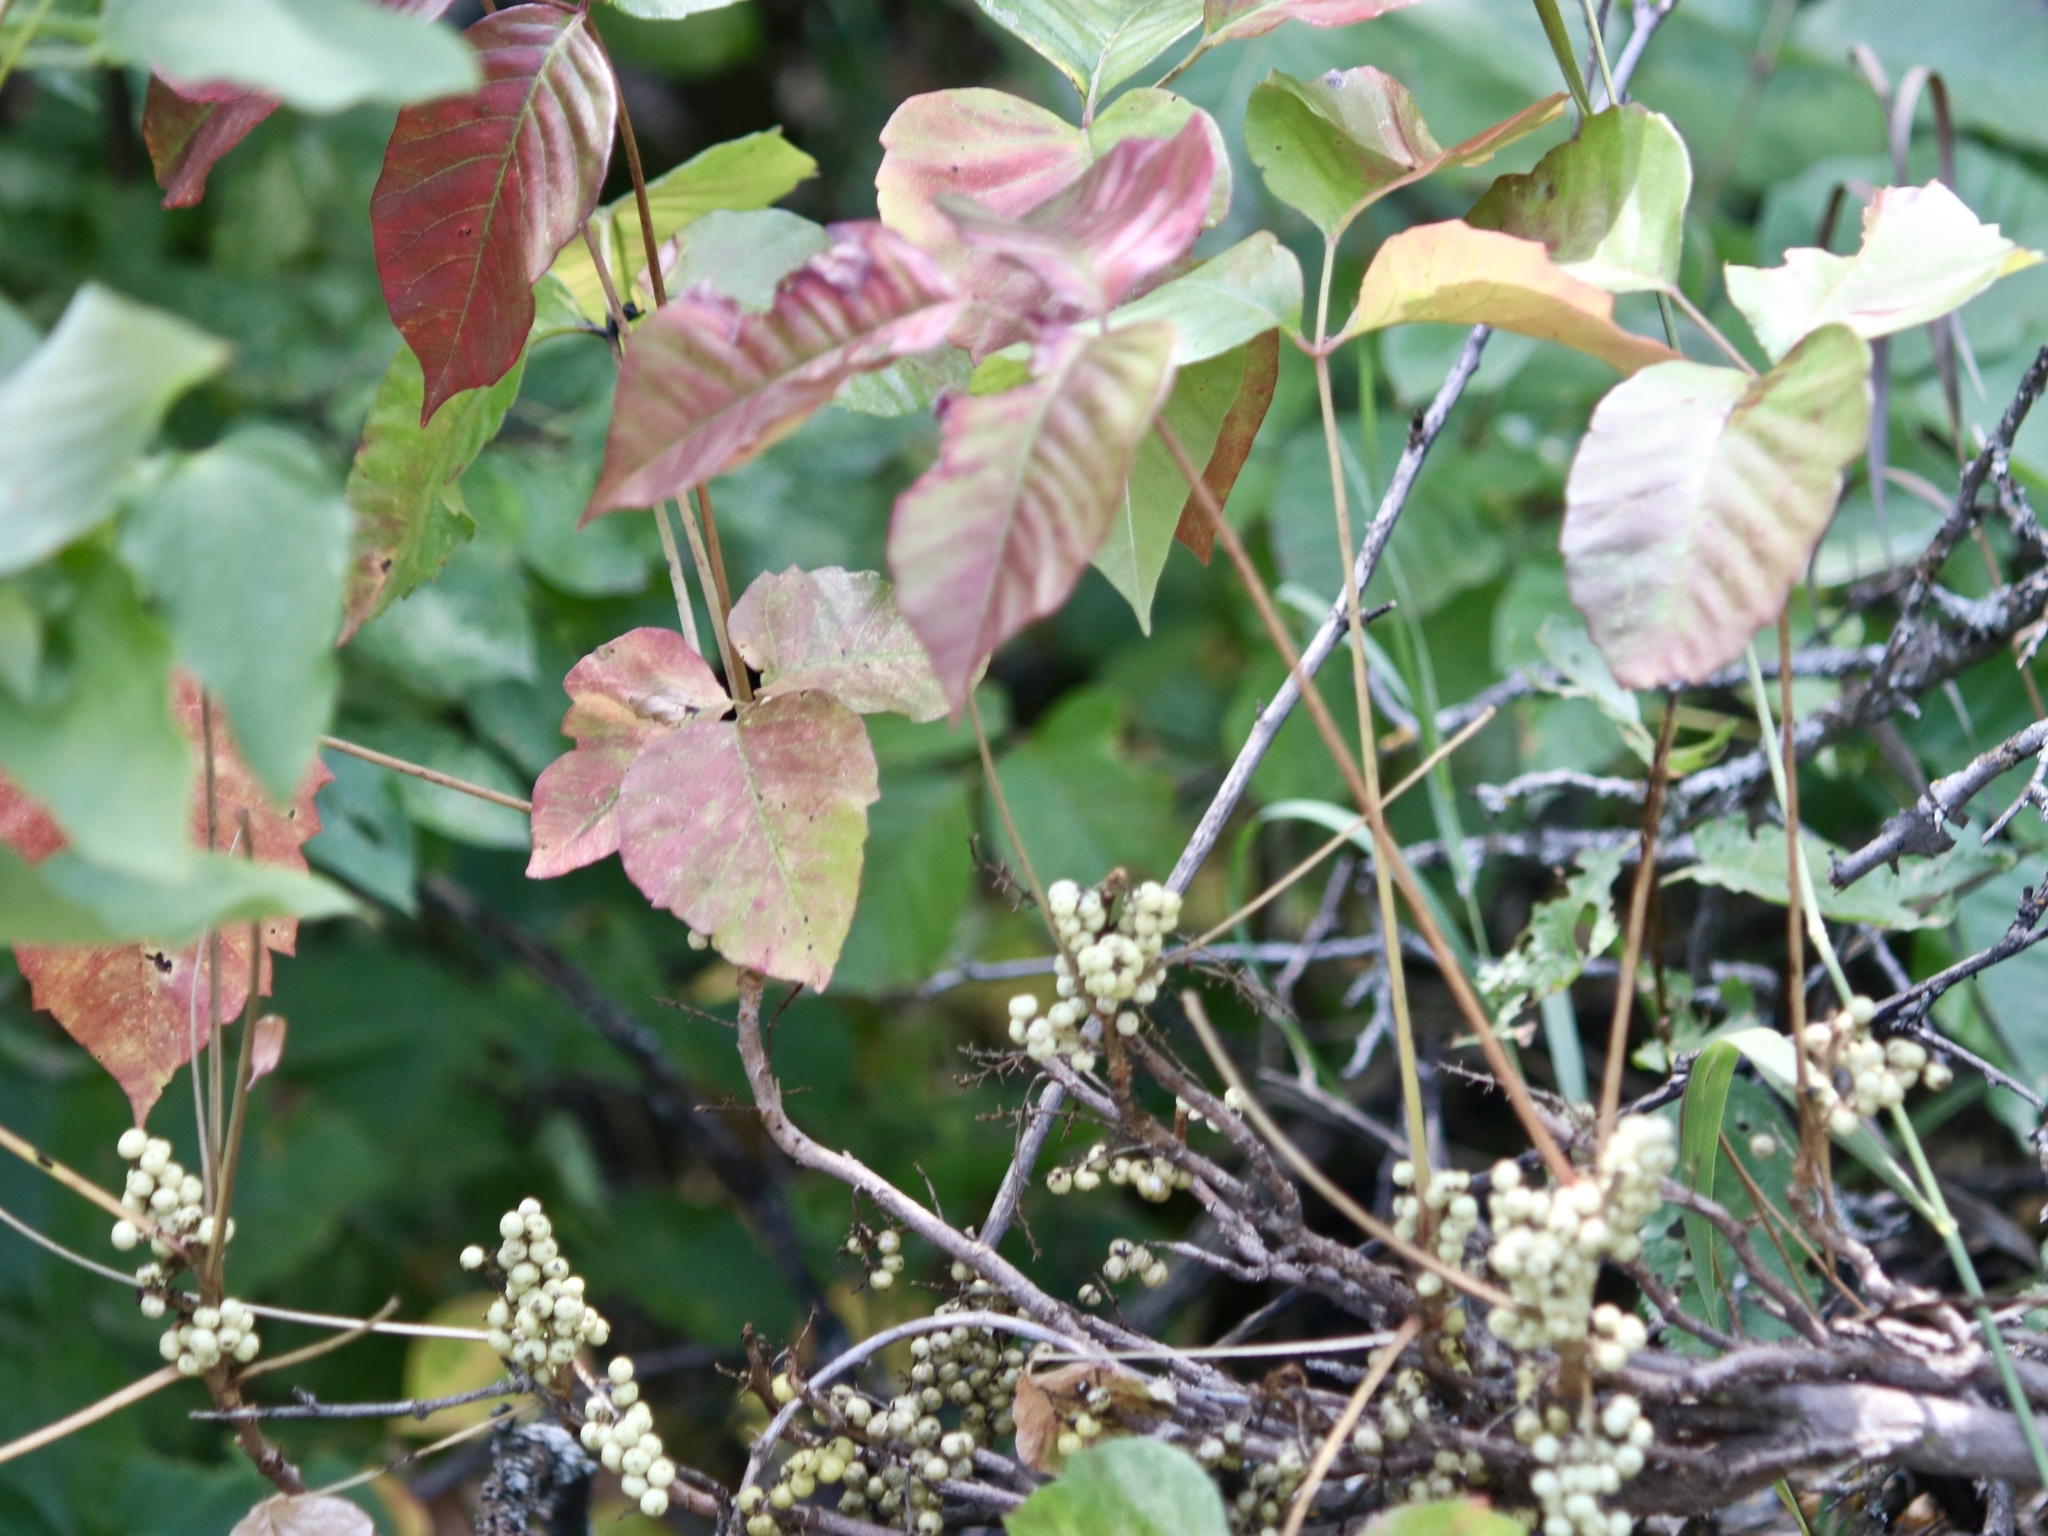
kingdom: Plantae
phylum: Tracheophyta
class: Magnoliopsida
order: Sapindales
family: Anacardiaceae
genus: Toxicodendron
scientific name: Toxicodendron rydbergii
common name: Rydberg's poison-ivy
